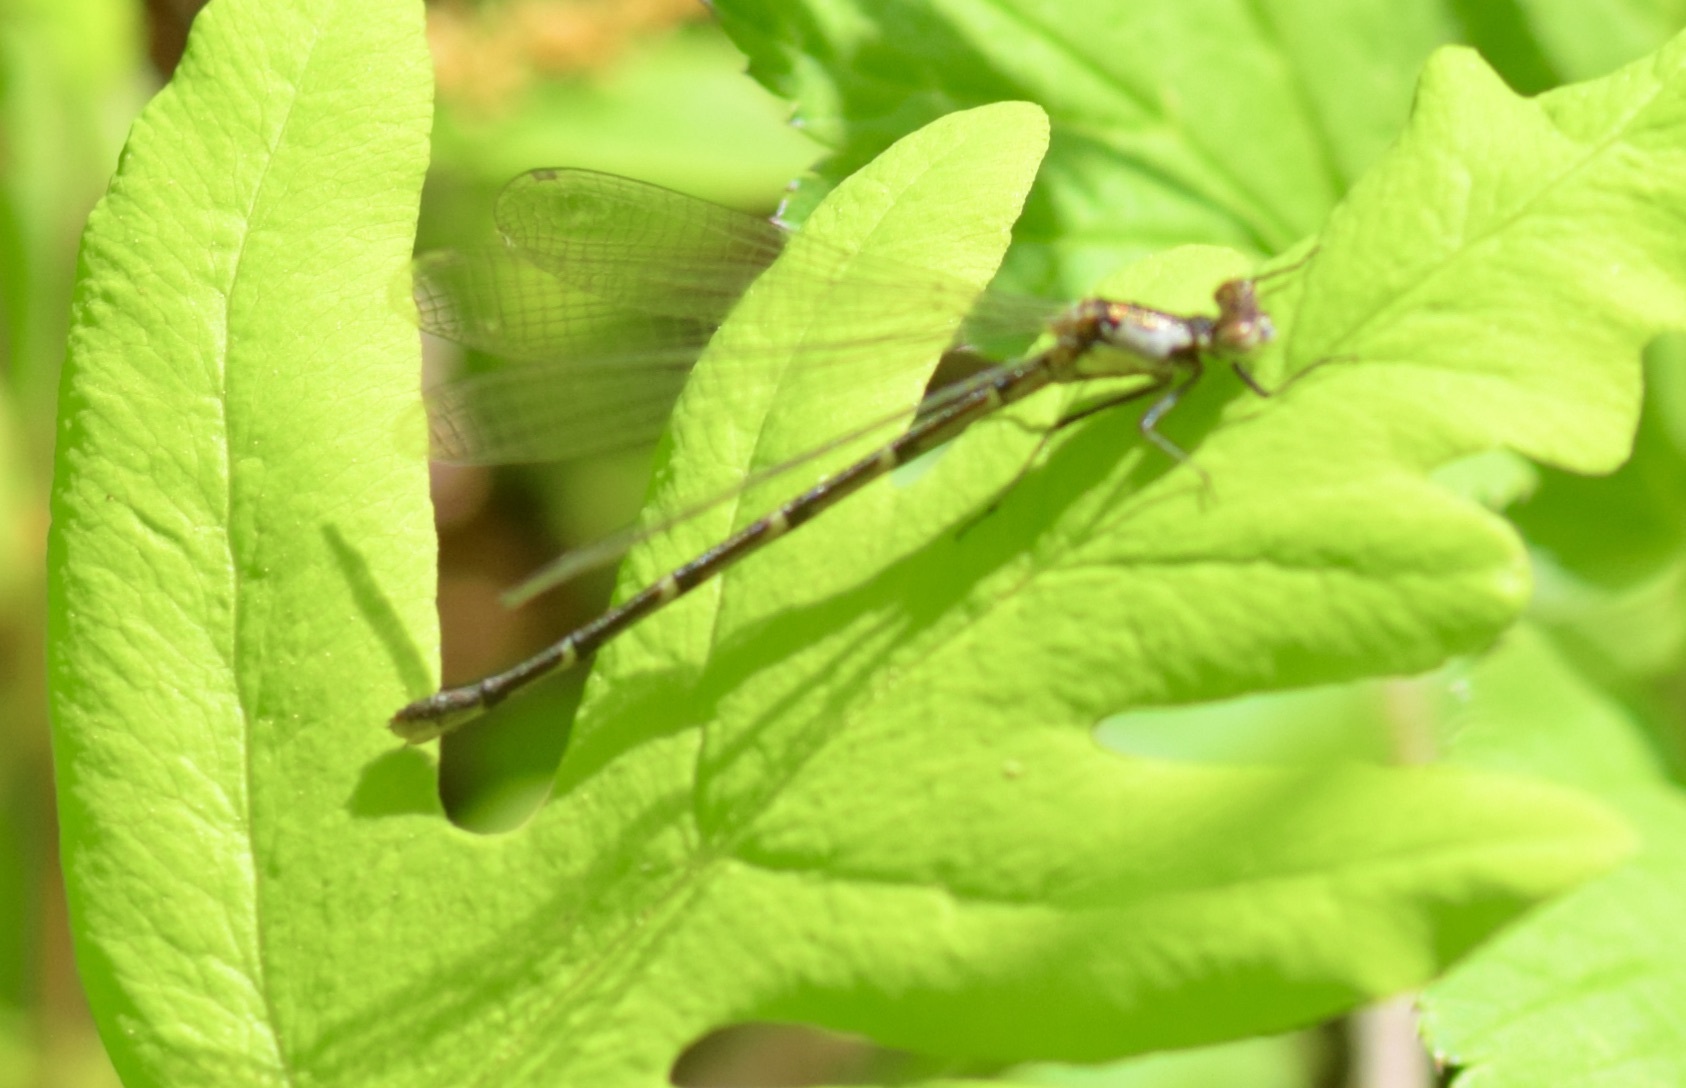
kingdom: Animalia
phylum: Arthropoda
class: Insecta
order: Odonata
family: Coenagrionidae
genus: Chromagrion
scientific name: Chromagrion conditum
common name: Aurora damsel
